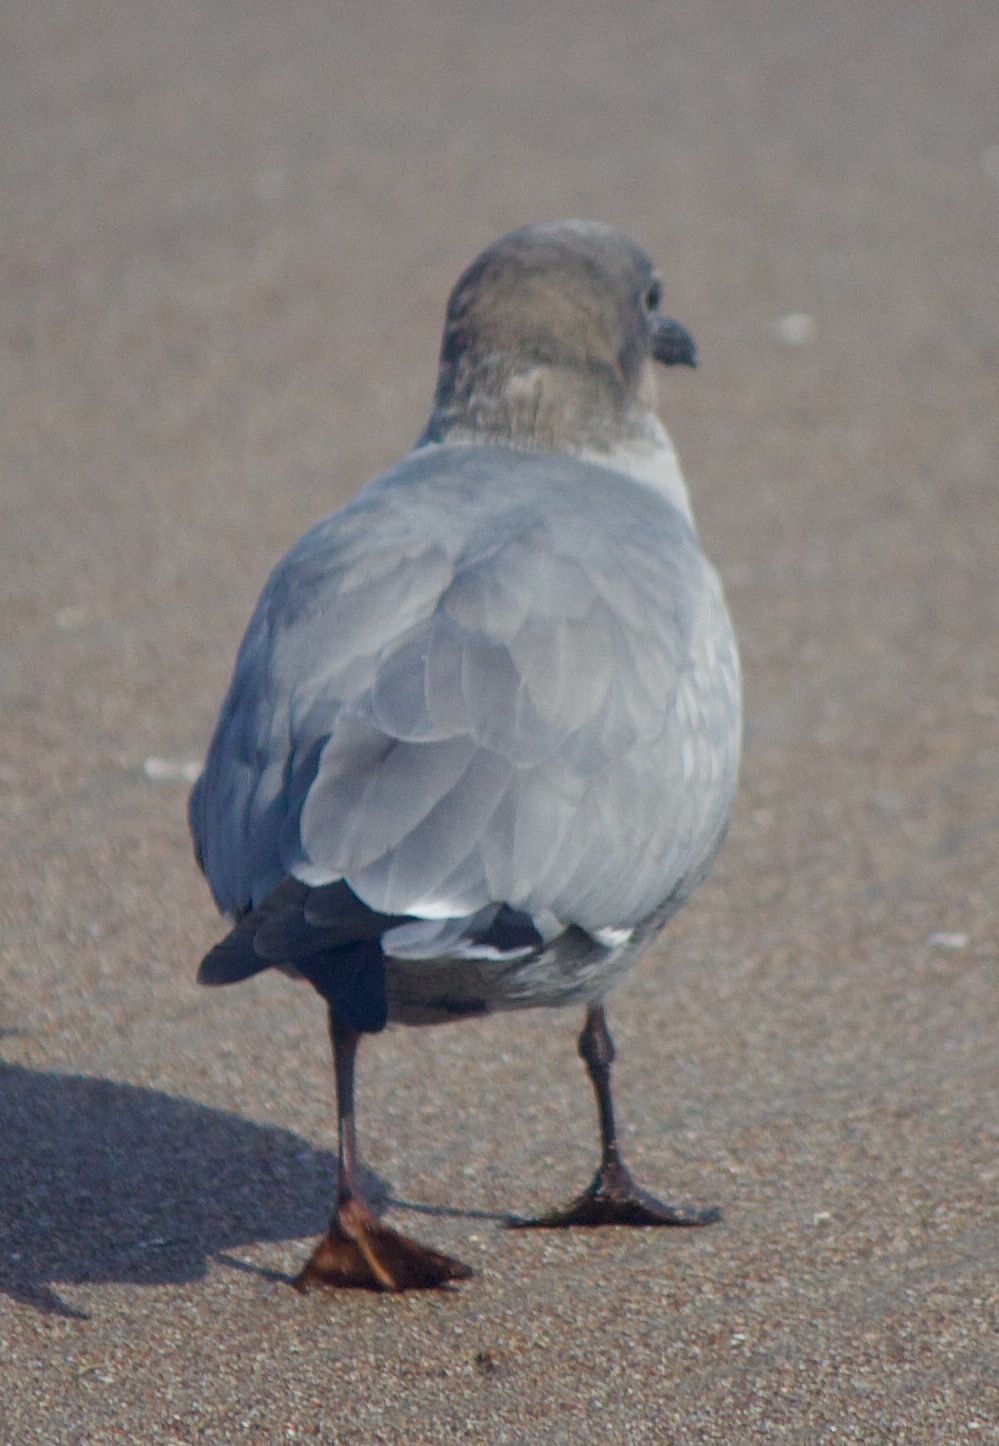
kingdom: Animalia
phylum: Chordata
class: Aves
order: Charadriiformes
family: Laridae
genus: Leucophaeus
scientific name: Leucophaeus modestus
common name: Gray gull
